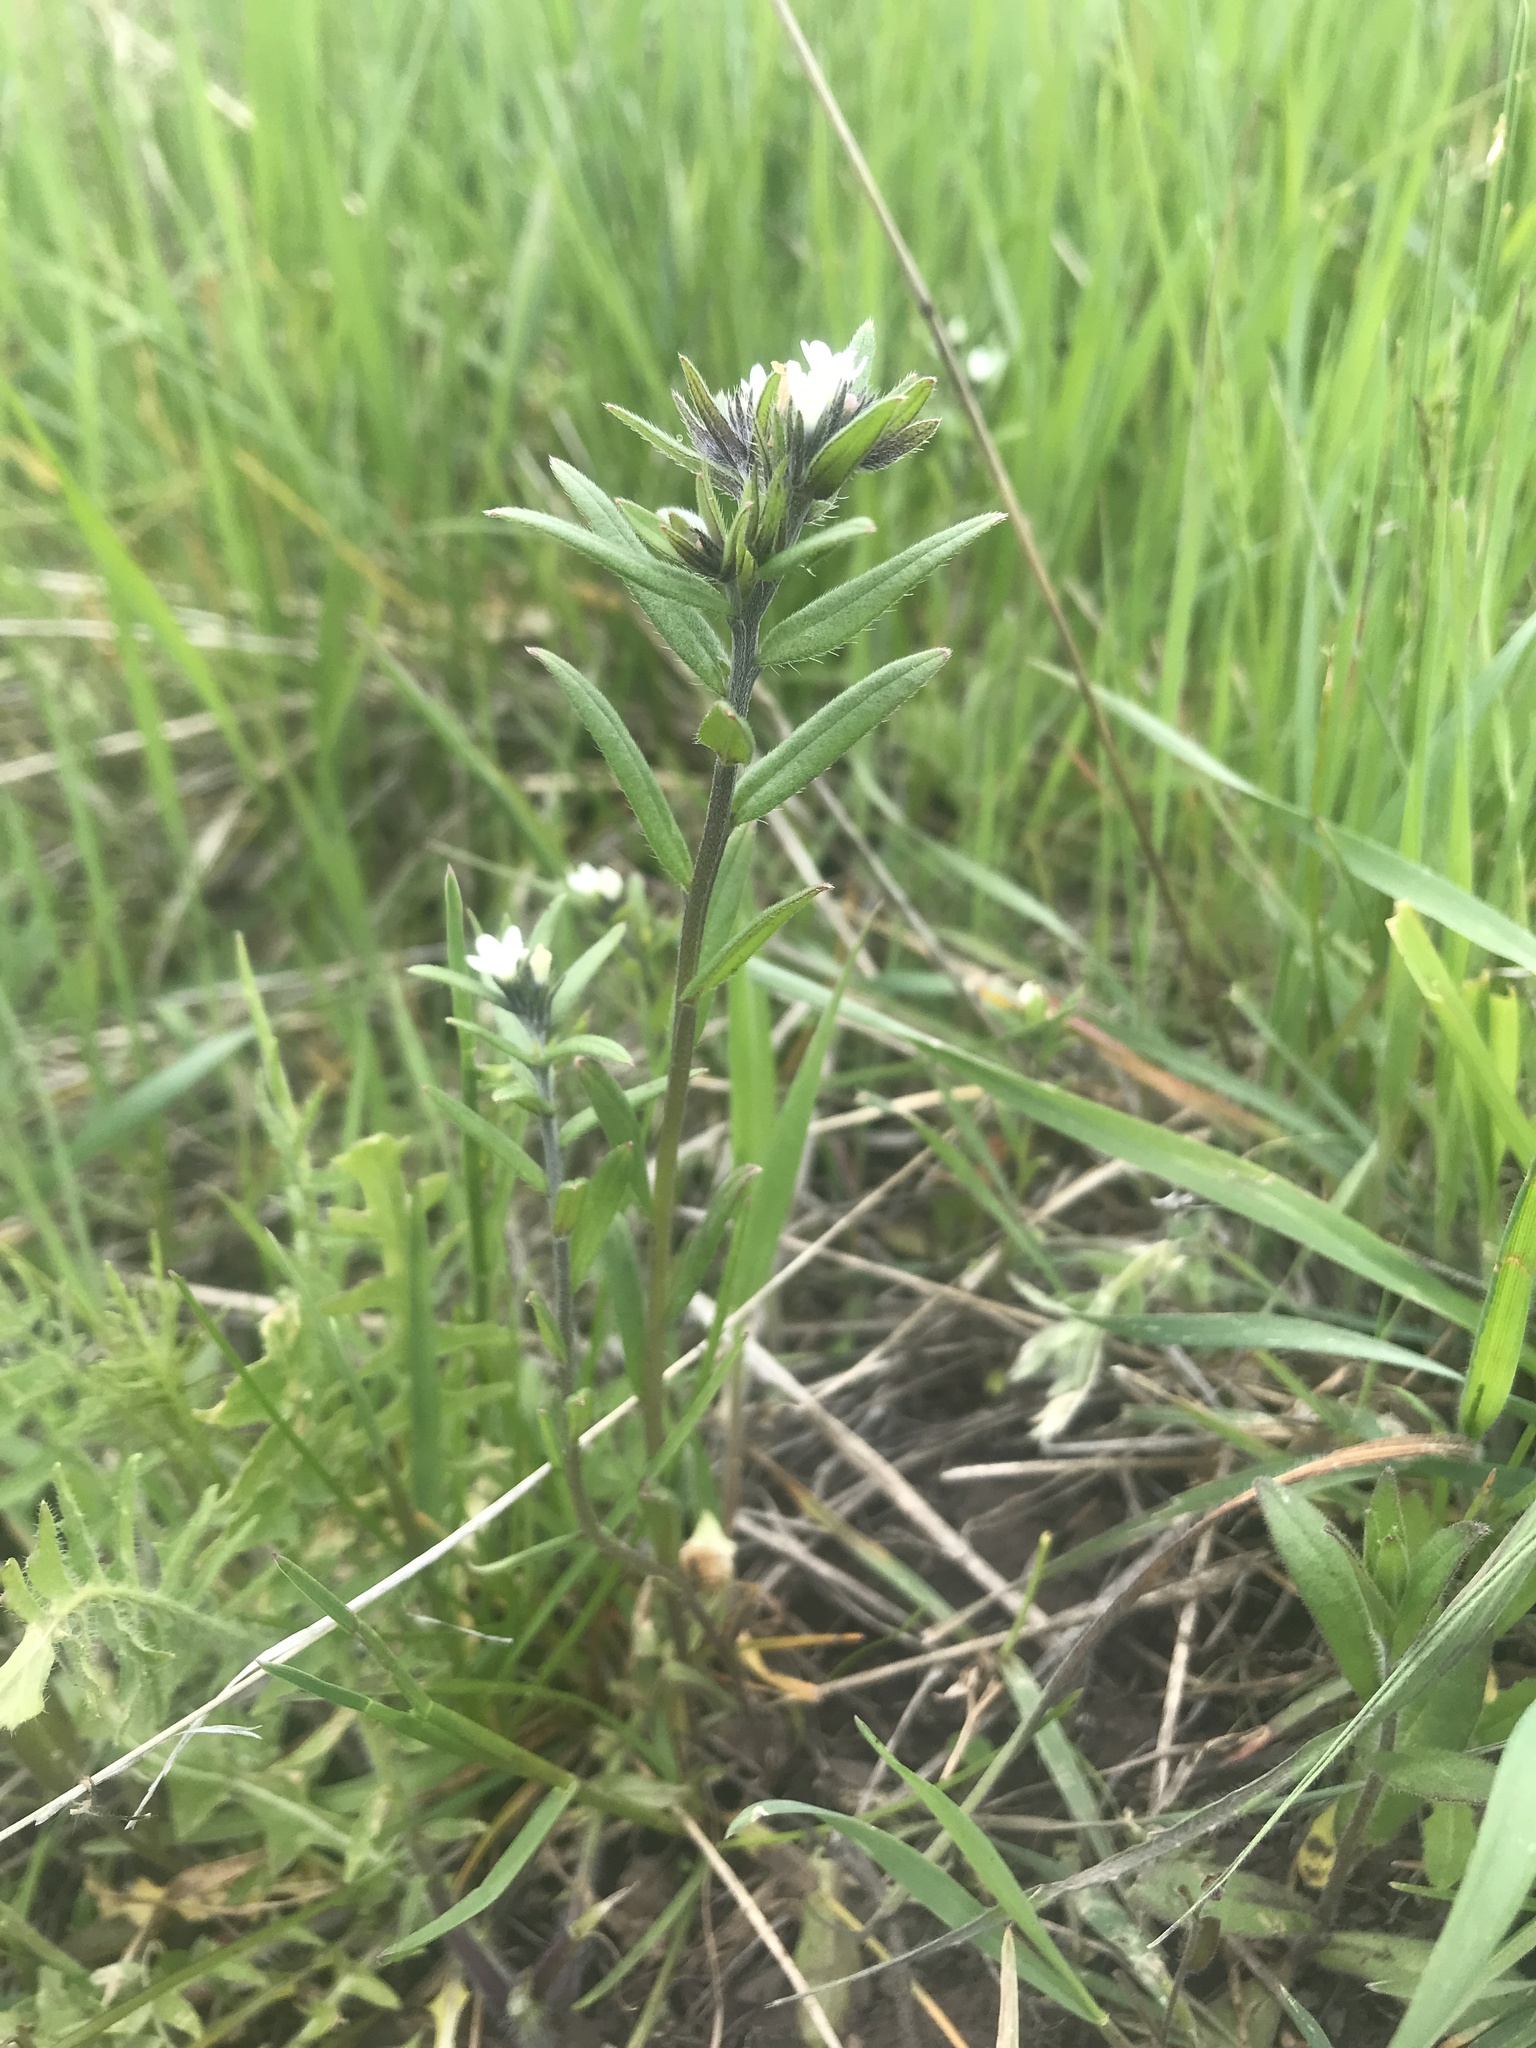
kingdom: Plantae
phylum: Tracheophyta
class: Magnoliopsida
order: Boraginales
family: Boraginaceae
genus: Buglossoides
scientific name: Buglossoides arvensis
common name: Corn gromwell
